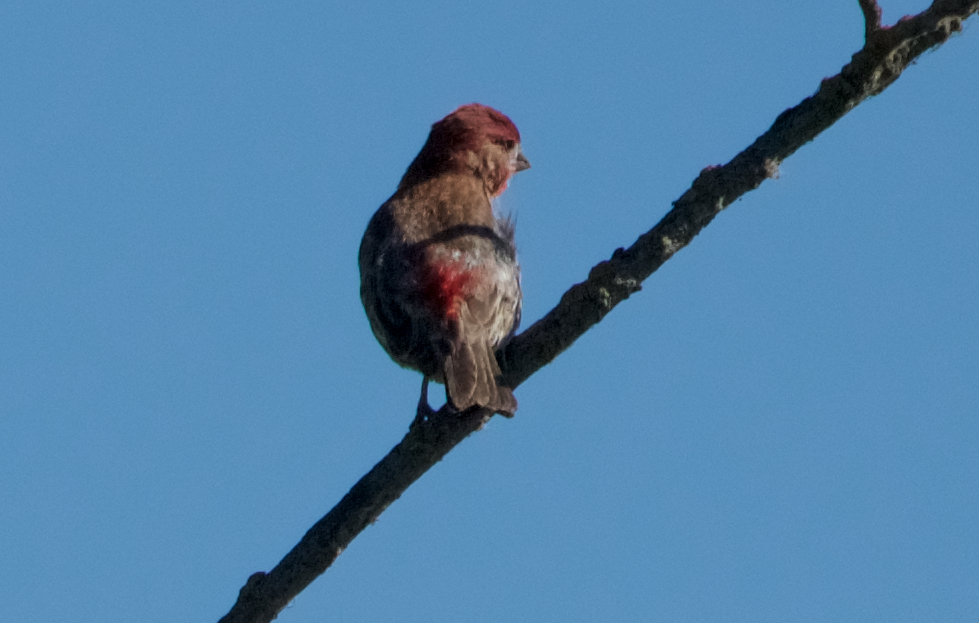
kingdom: Animalia
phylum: Chordata
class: Aves
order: Passeriformes
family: Fringillidae
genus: Haemorhous
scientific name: Haemorhous mexicanus
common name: House finch
